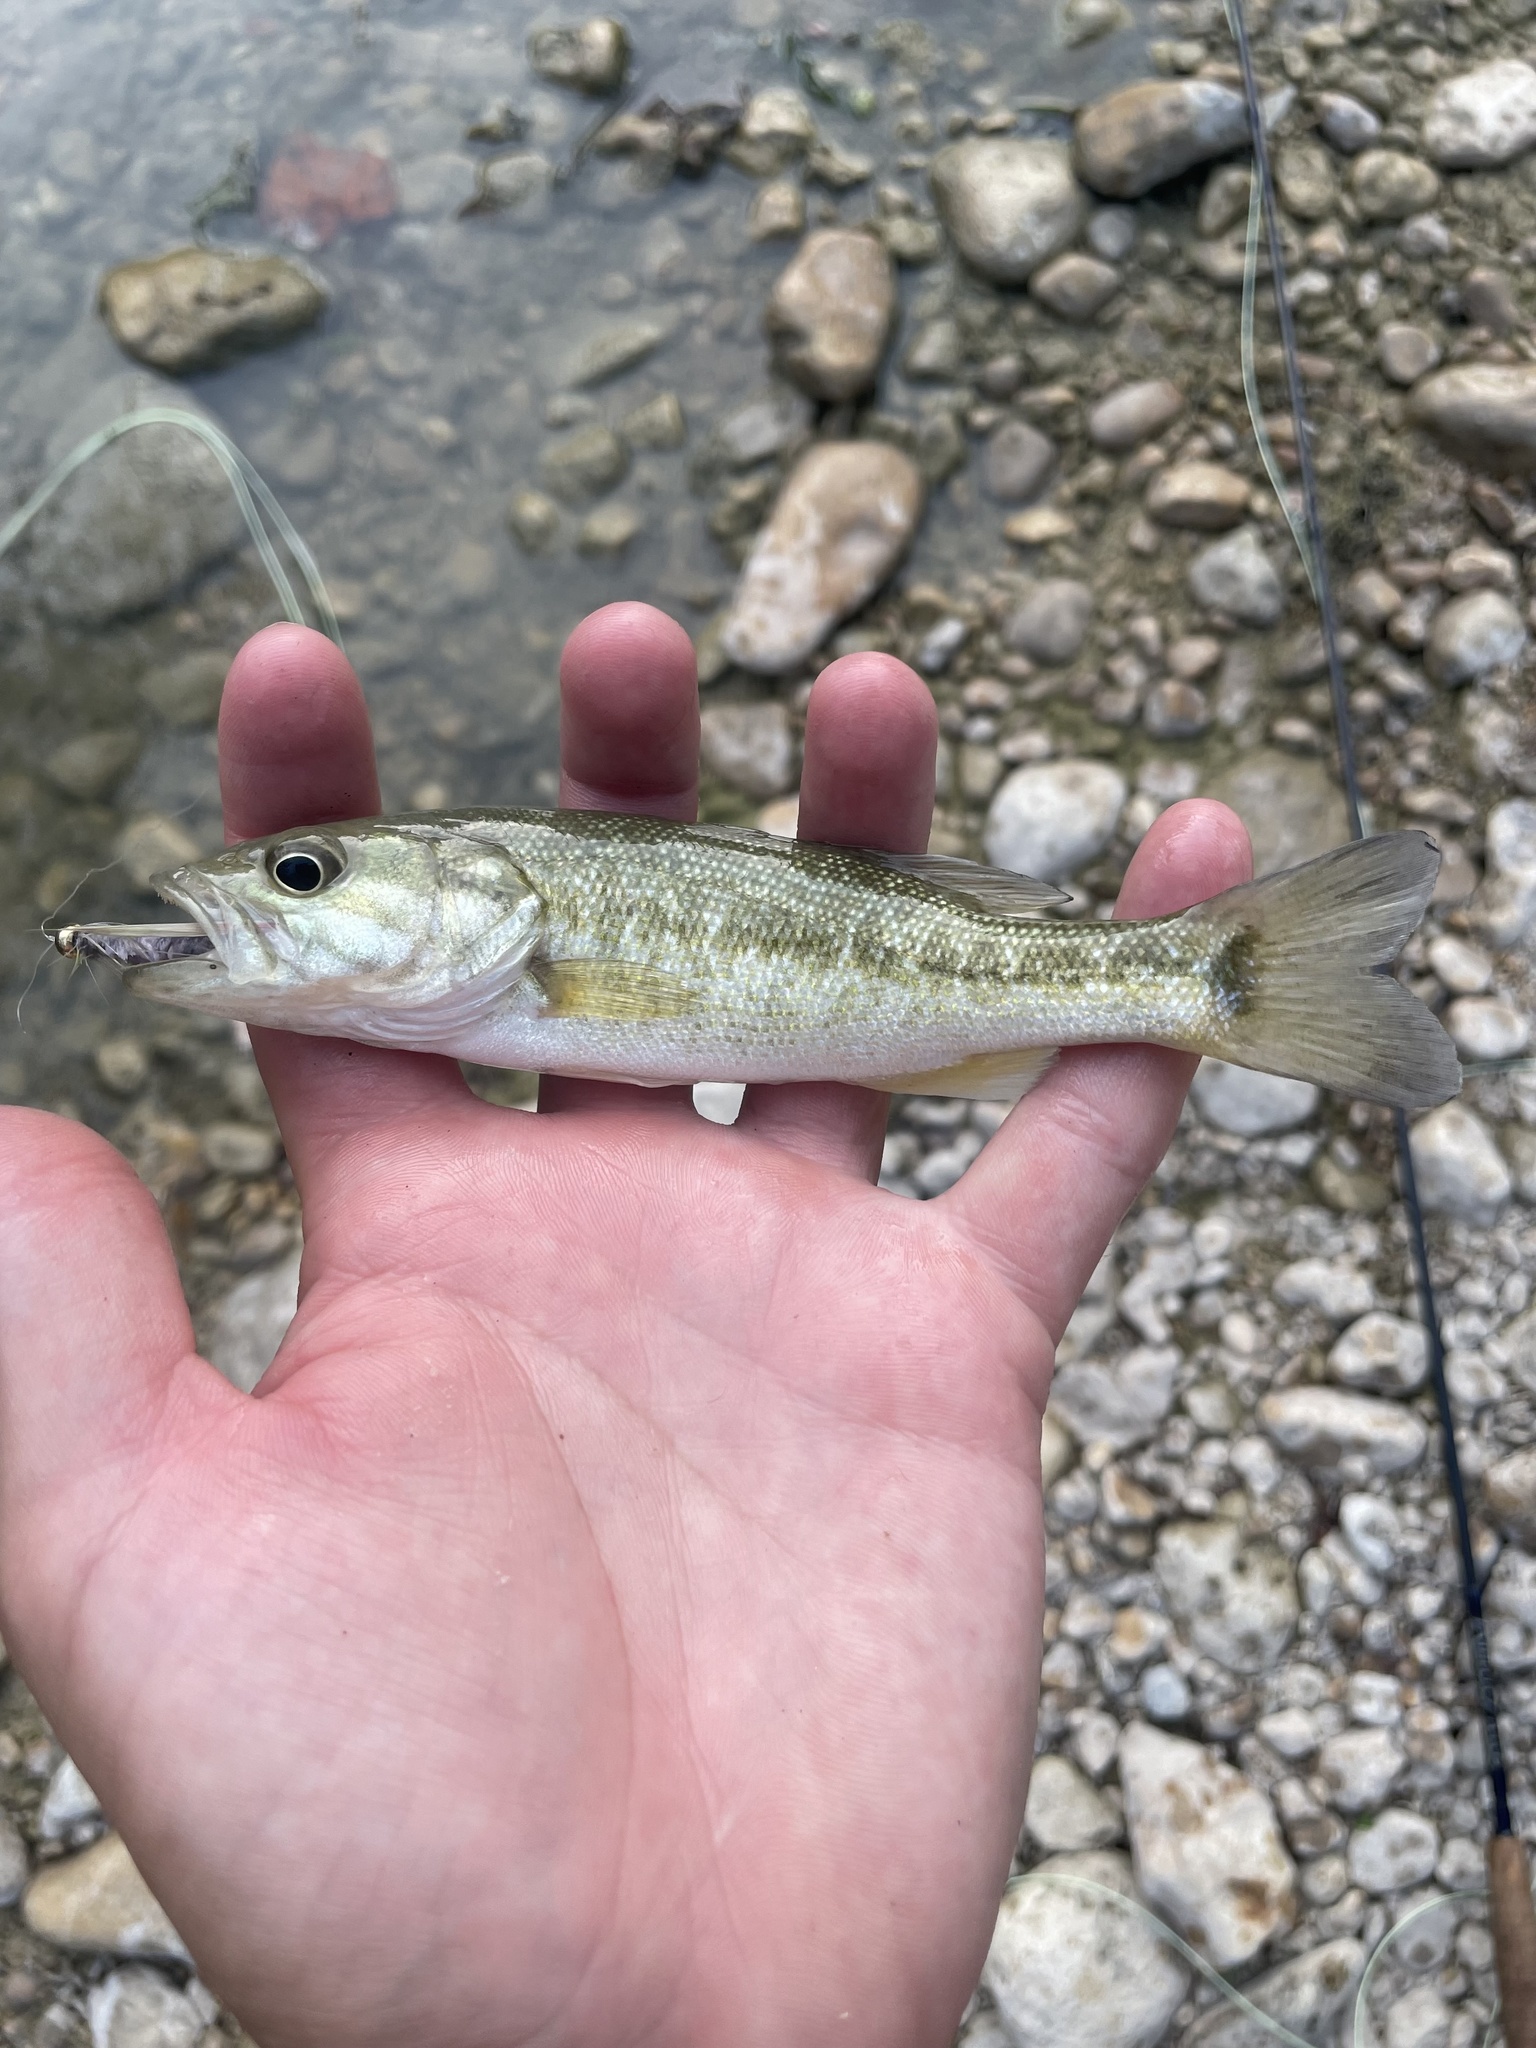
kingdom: Animalia
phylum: Chordata
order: Perciformes
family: Centrarchidae
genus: Micropterus
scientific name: Micropterus treculii
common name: Guadalupe bass
